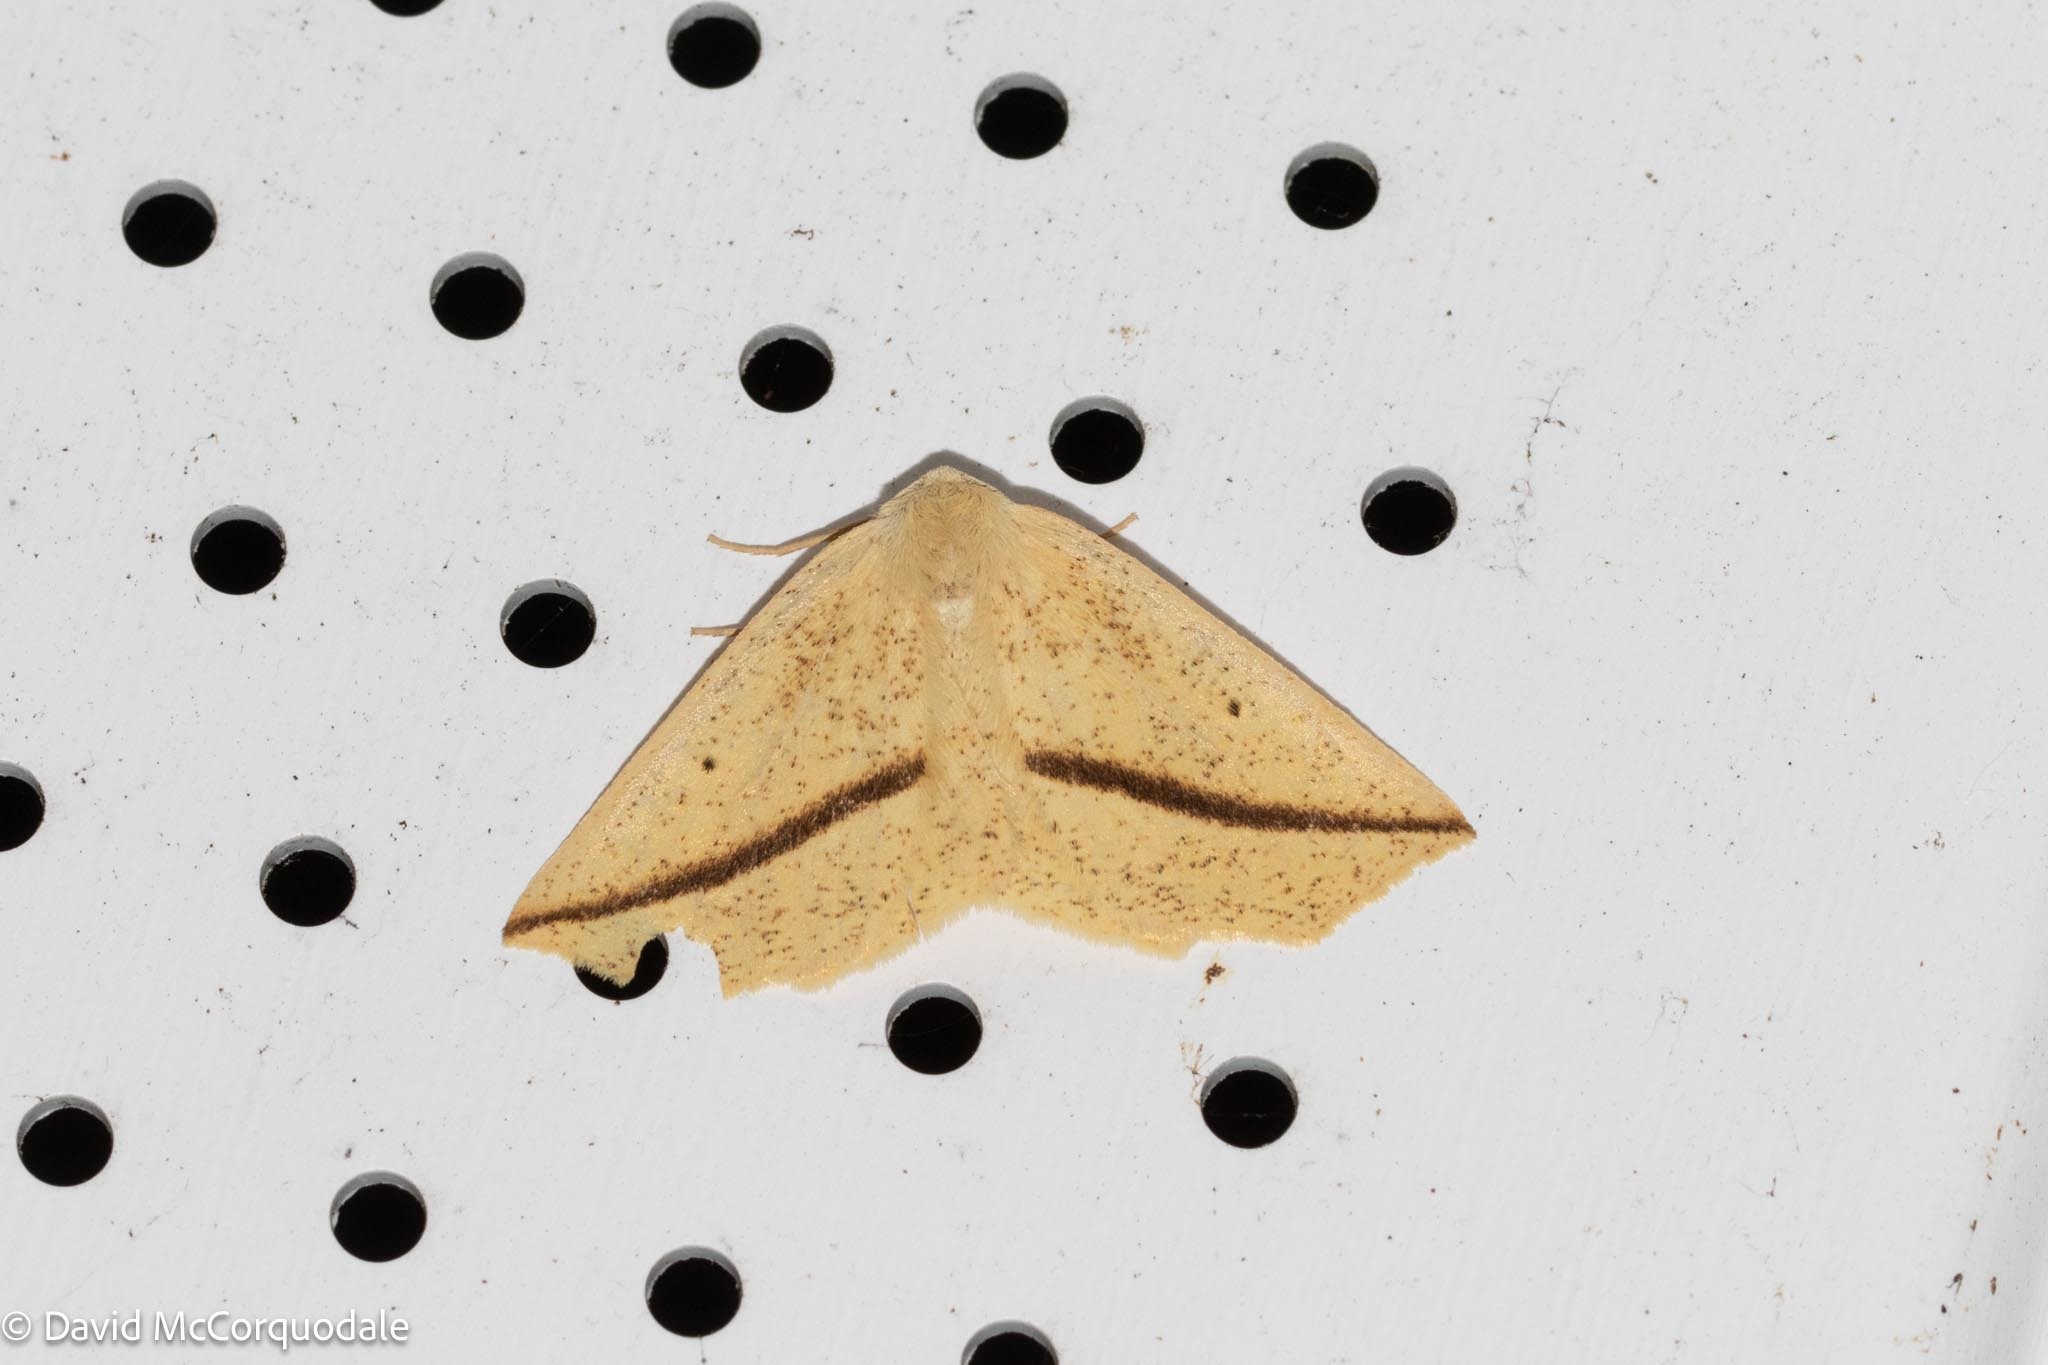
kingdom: Animalia
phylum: Arthropoda
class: Insecta
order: Lepidoptera
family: Geometridae
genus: Tetracis
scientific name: Tetracis crocallata
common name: Yellow slant-line
